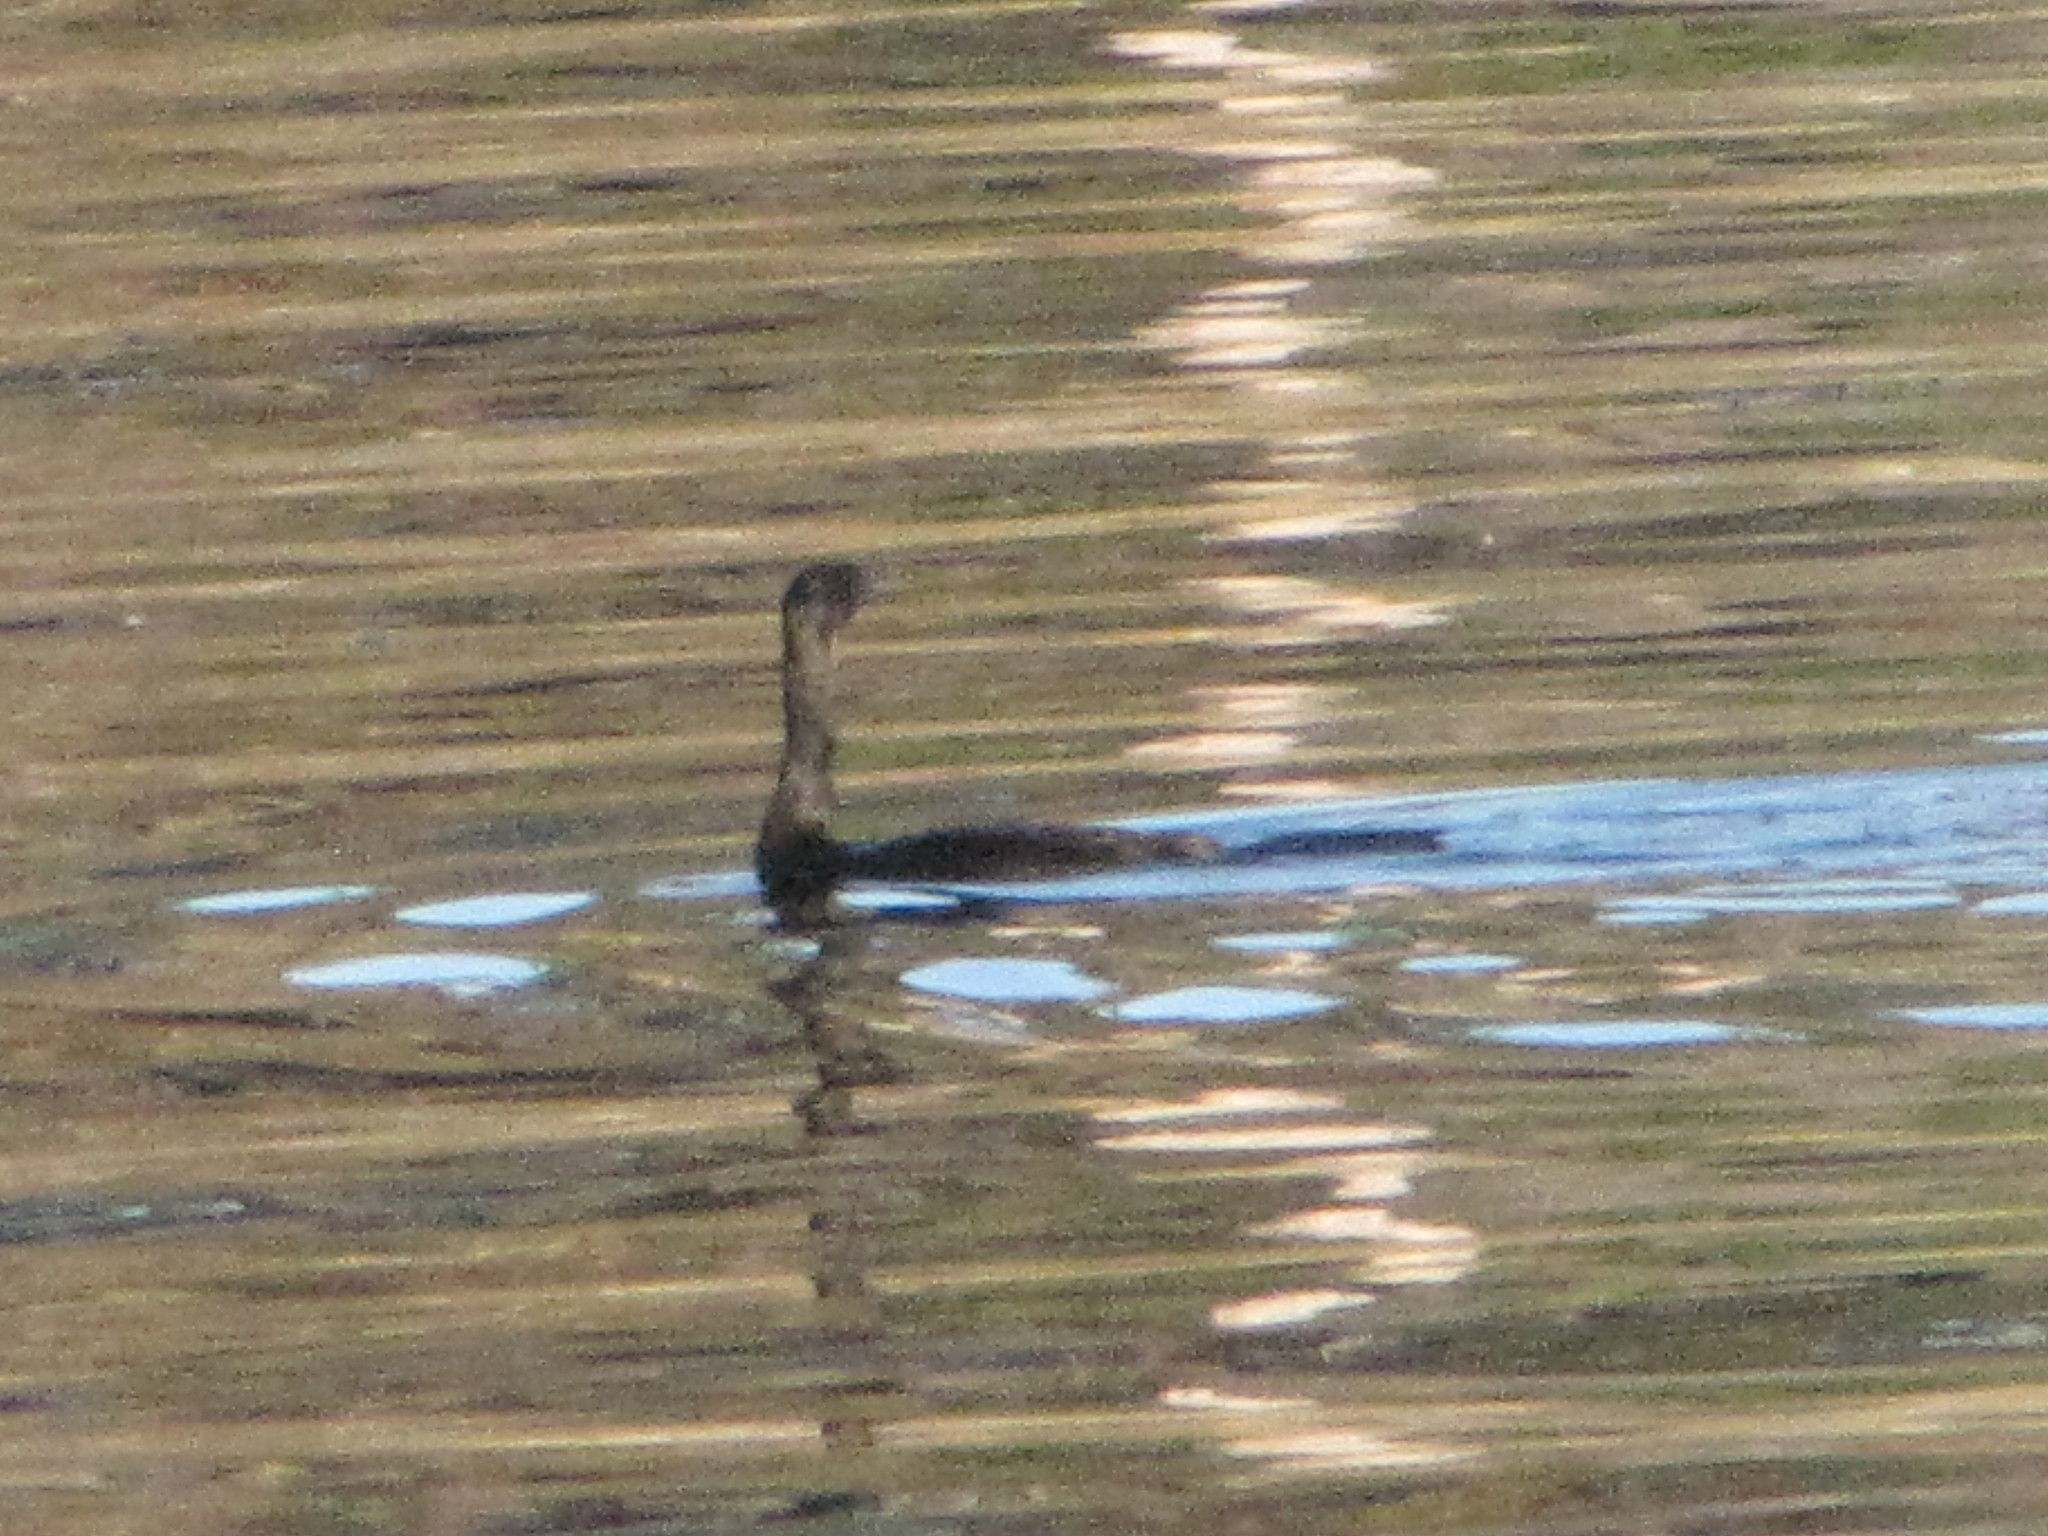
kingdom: Animalia
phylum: Chordata
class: Aves
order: Suliformes
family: Phalacrocoracidae
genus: Phalacrocorax
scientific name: Phalacrocorax pelagicus
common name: Pelagic cormorant
